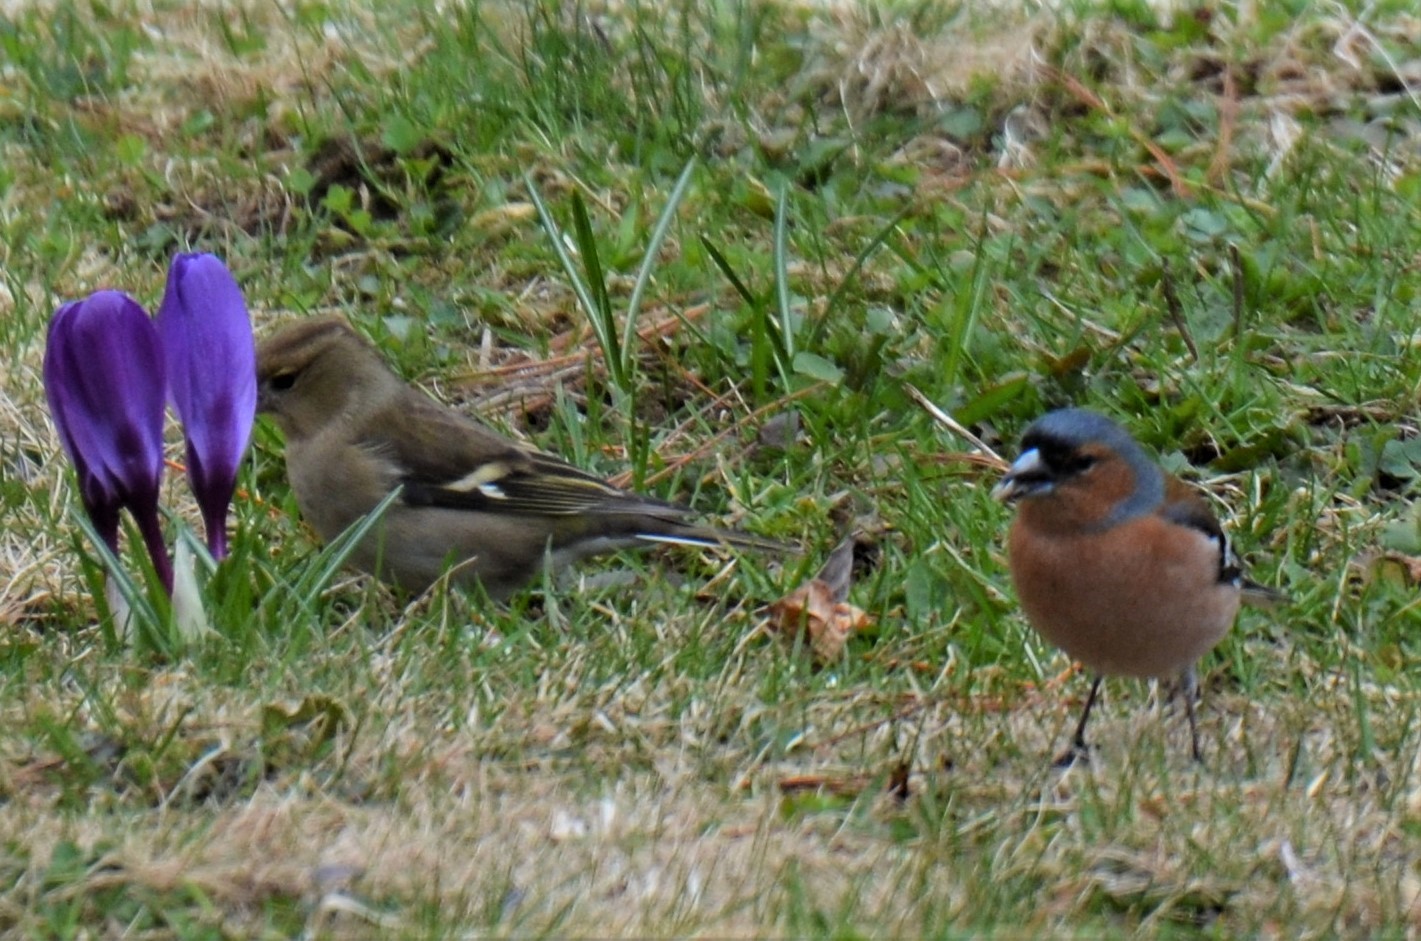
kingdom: Animalia
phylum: Chordata
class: Aves
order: Passeriformes
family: Fringillidae
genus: Fringilla
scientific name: Fringilla coelebs
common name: Common chaffinch
